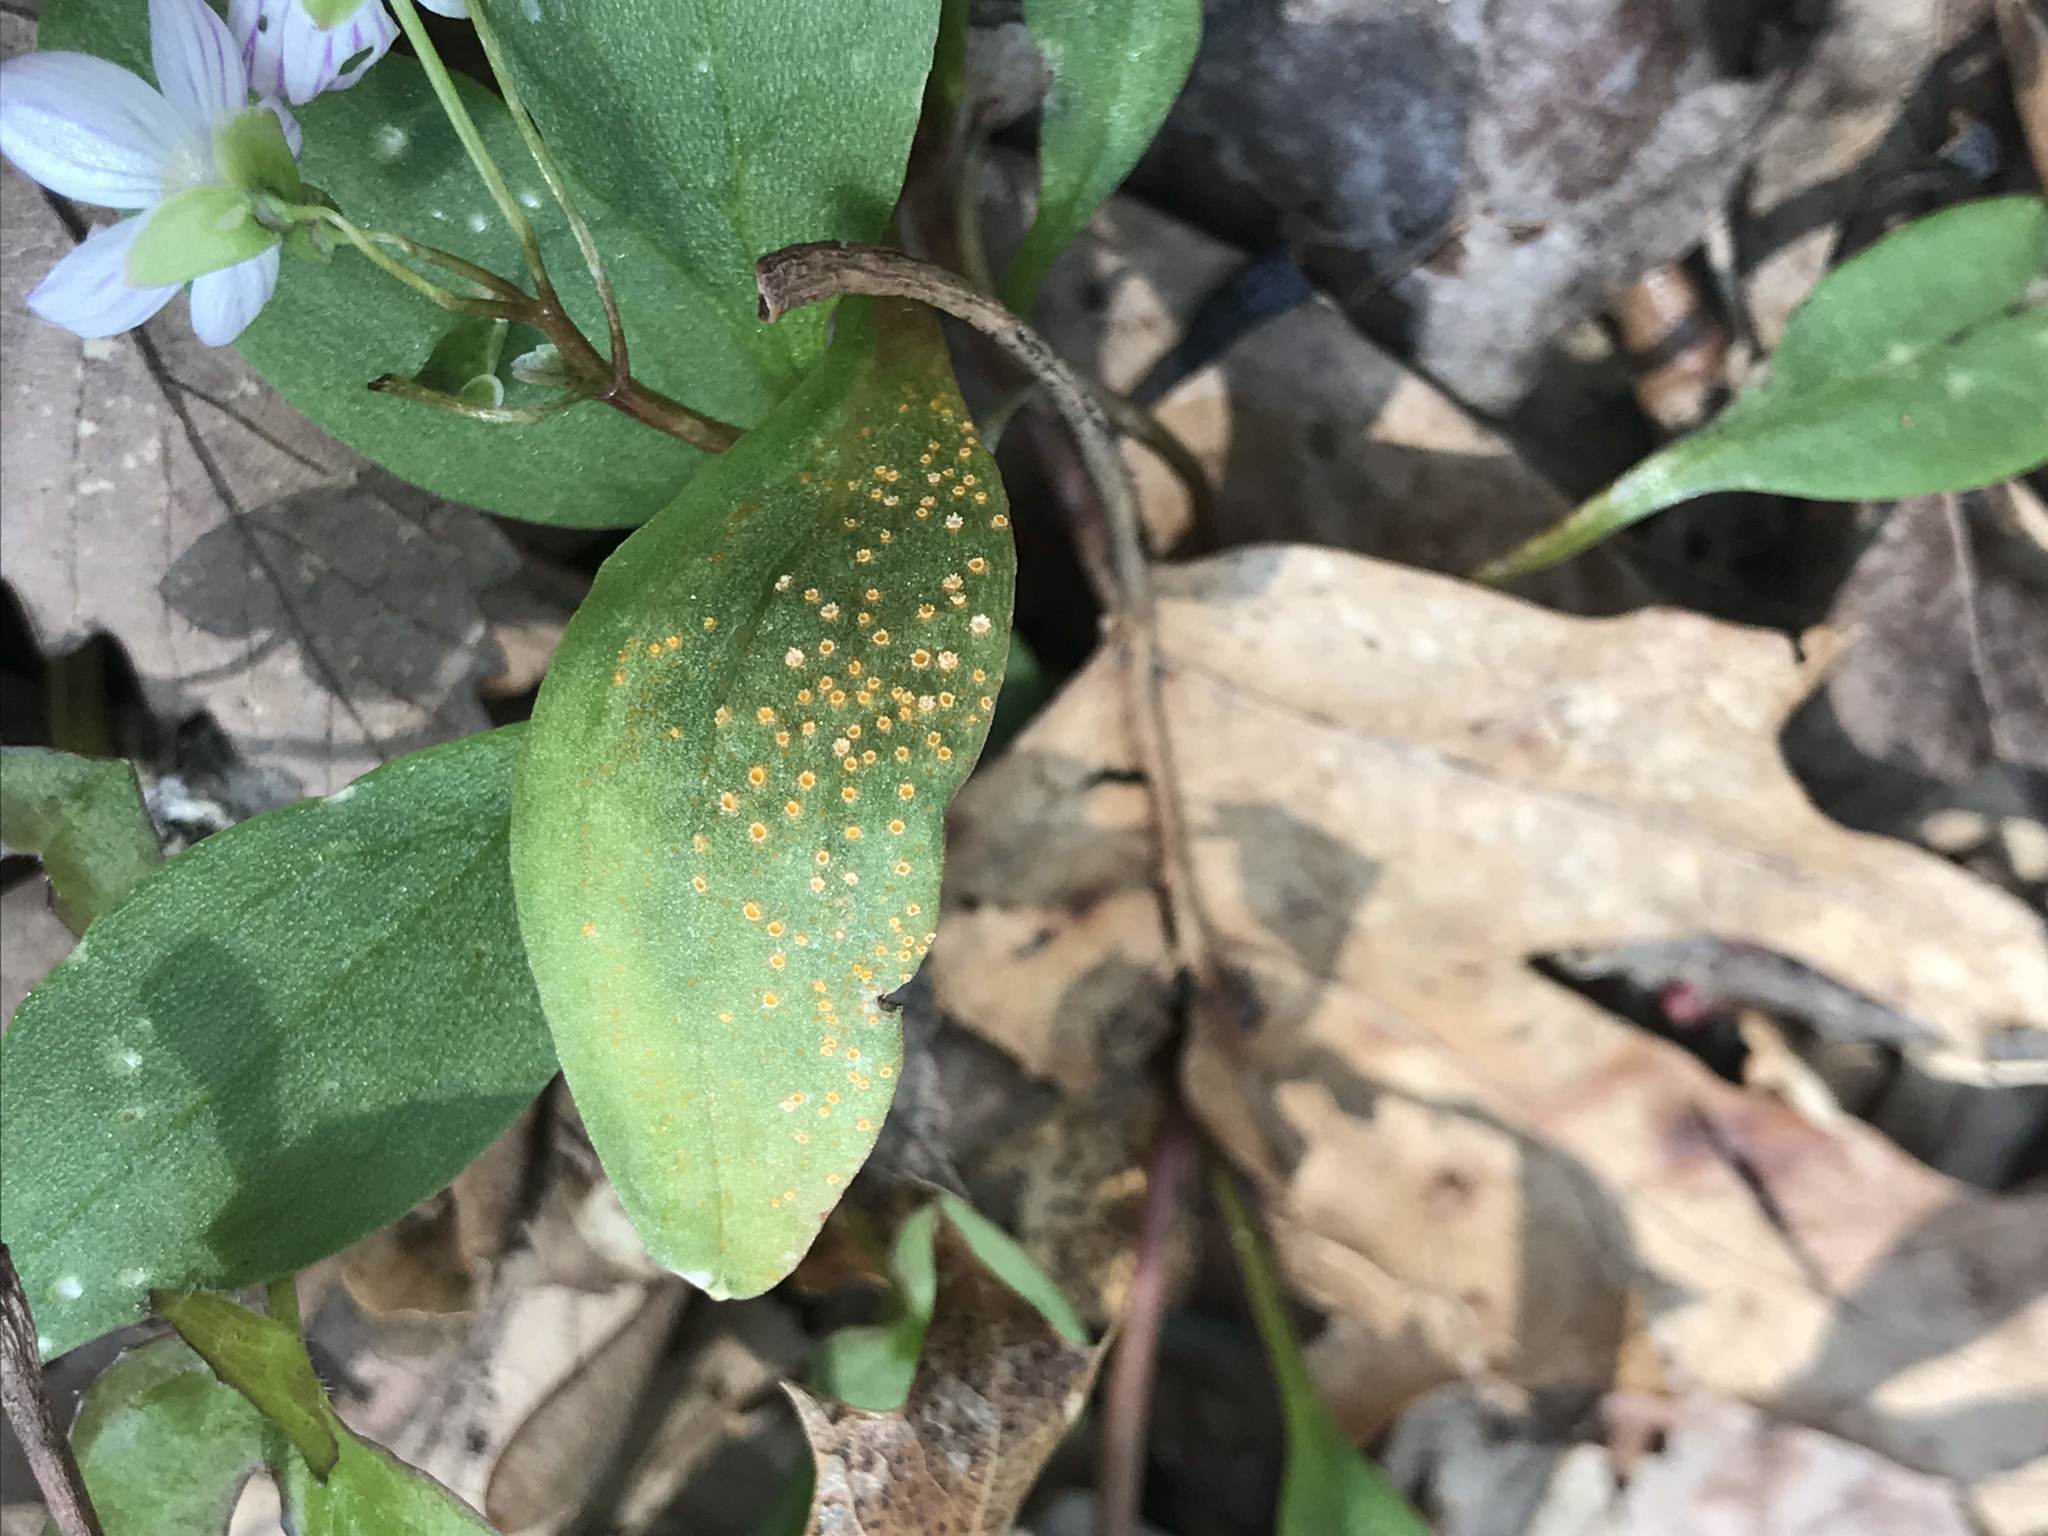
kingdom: Fungi
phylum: Basidiomycota
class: Pucciniomycetes
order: Pucciniales
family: Pucciniaceae
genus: Puccinia
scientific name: Puccinia mariae-wilsoniae
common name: Spring beauty rust
